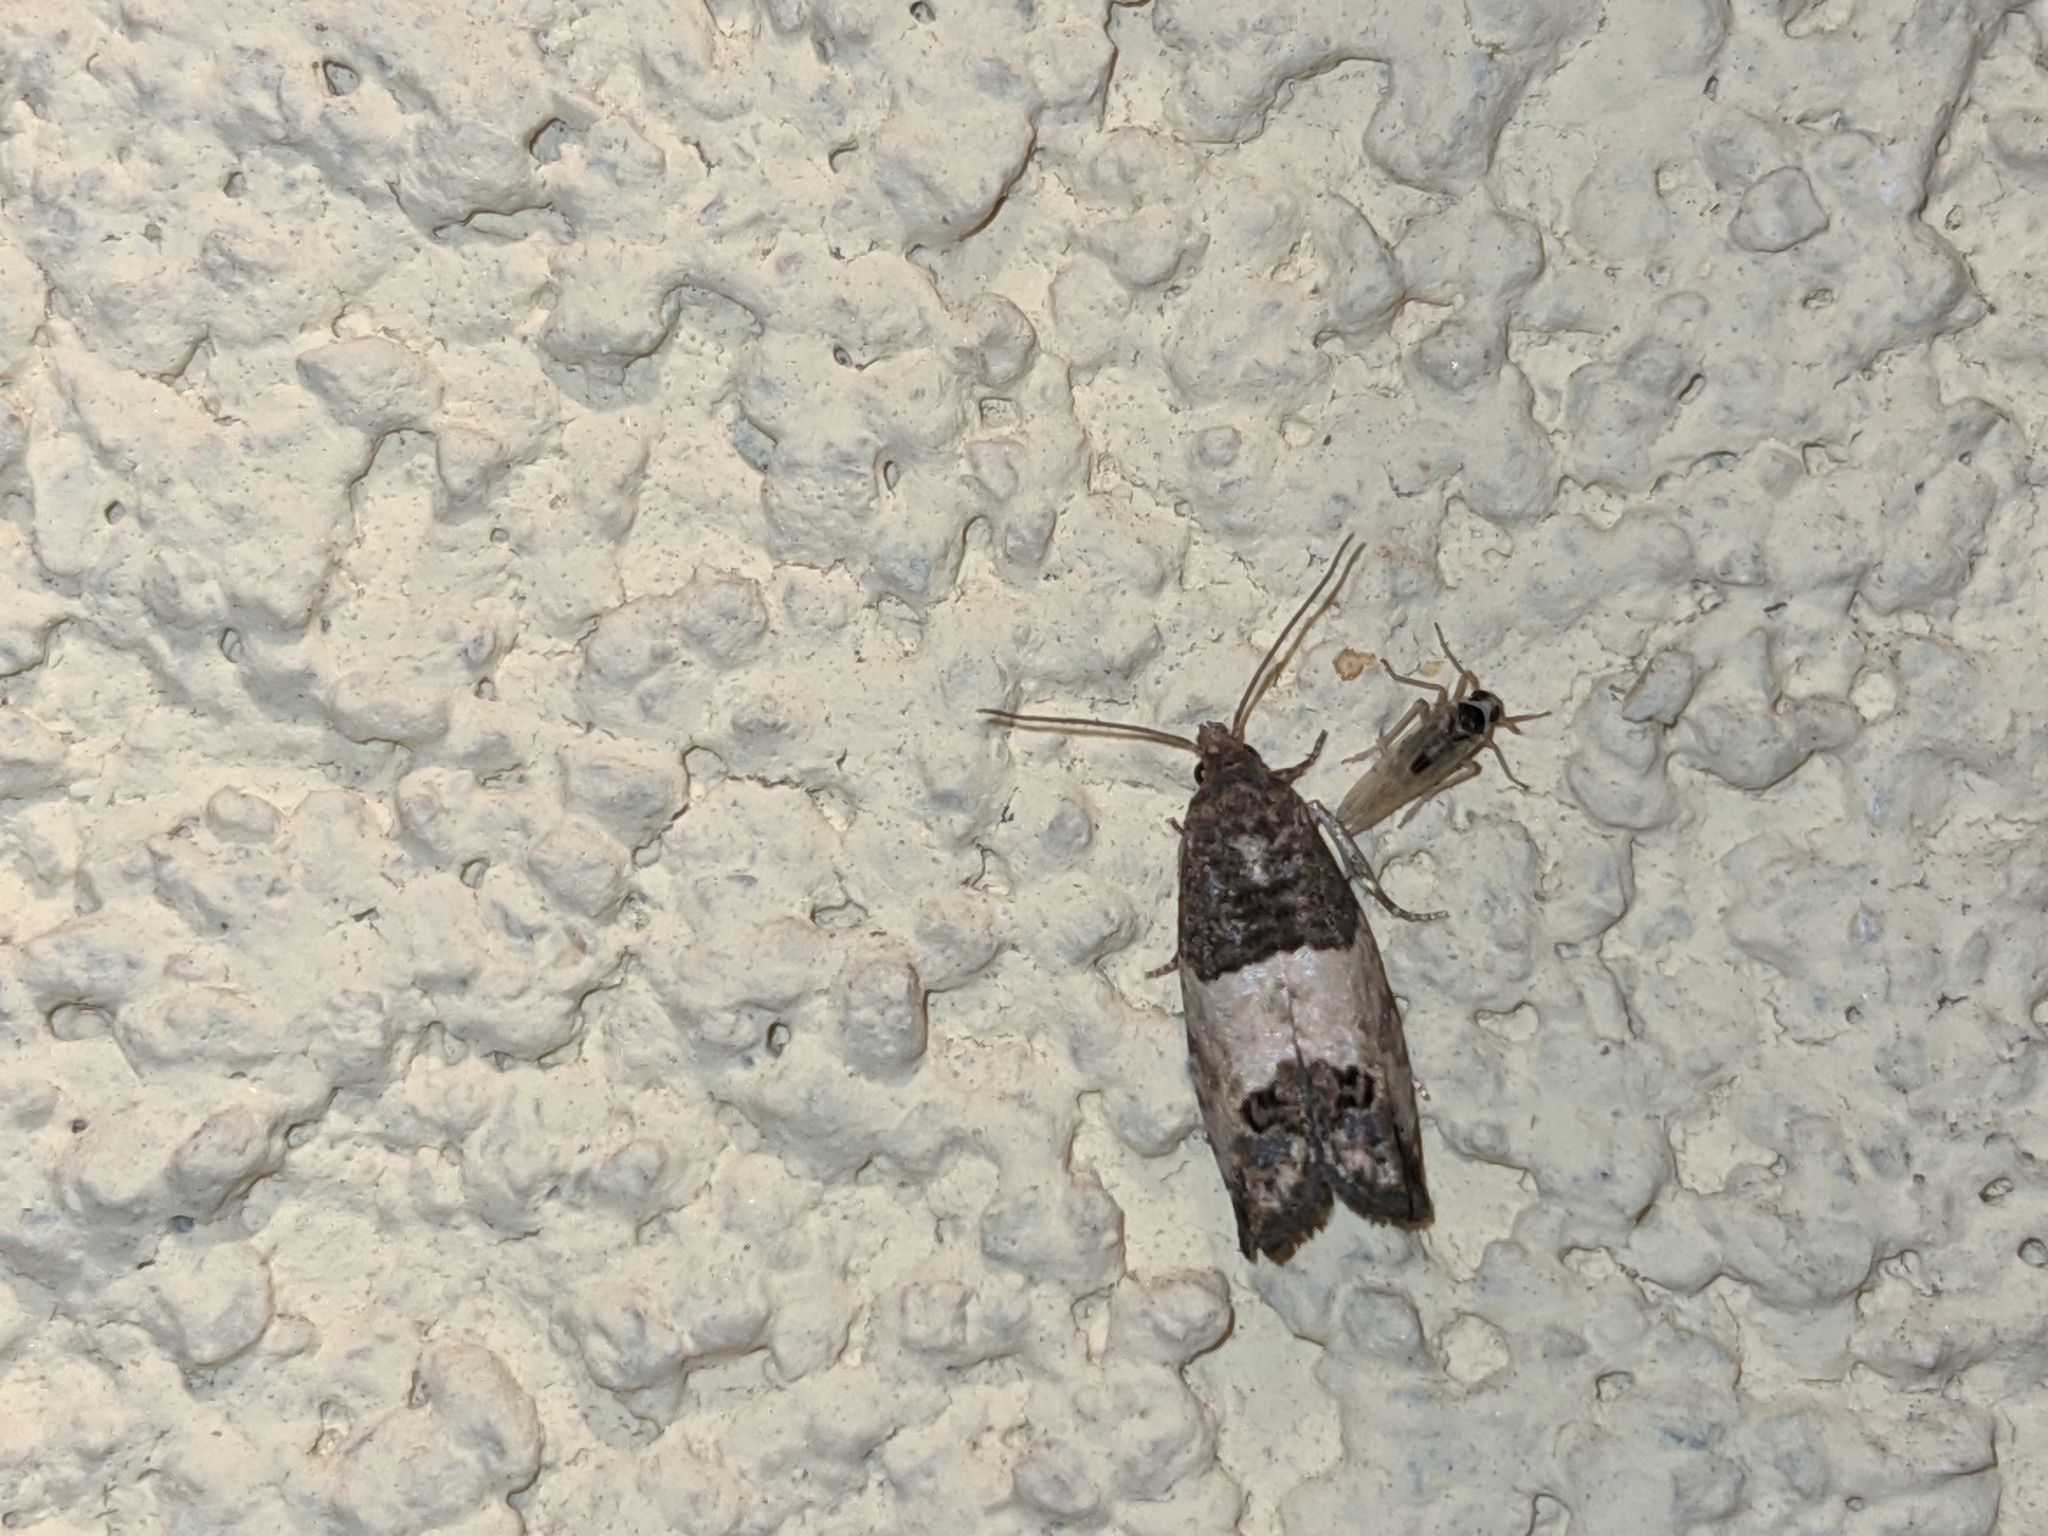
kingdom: Animalia
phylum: Arthropoda
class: Insecta
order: Lepidoptera
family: Tortricidae
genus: Spilonota
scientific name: Spilonota ocellana
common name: Bud moth
